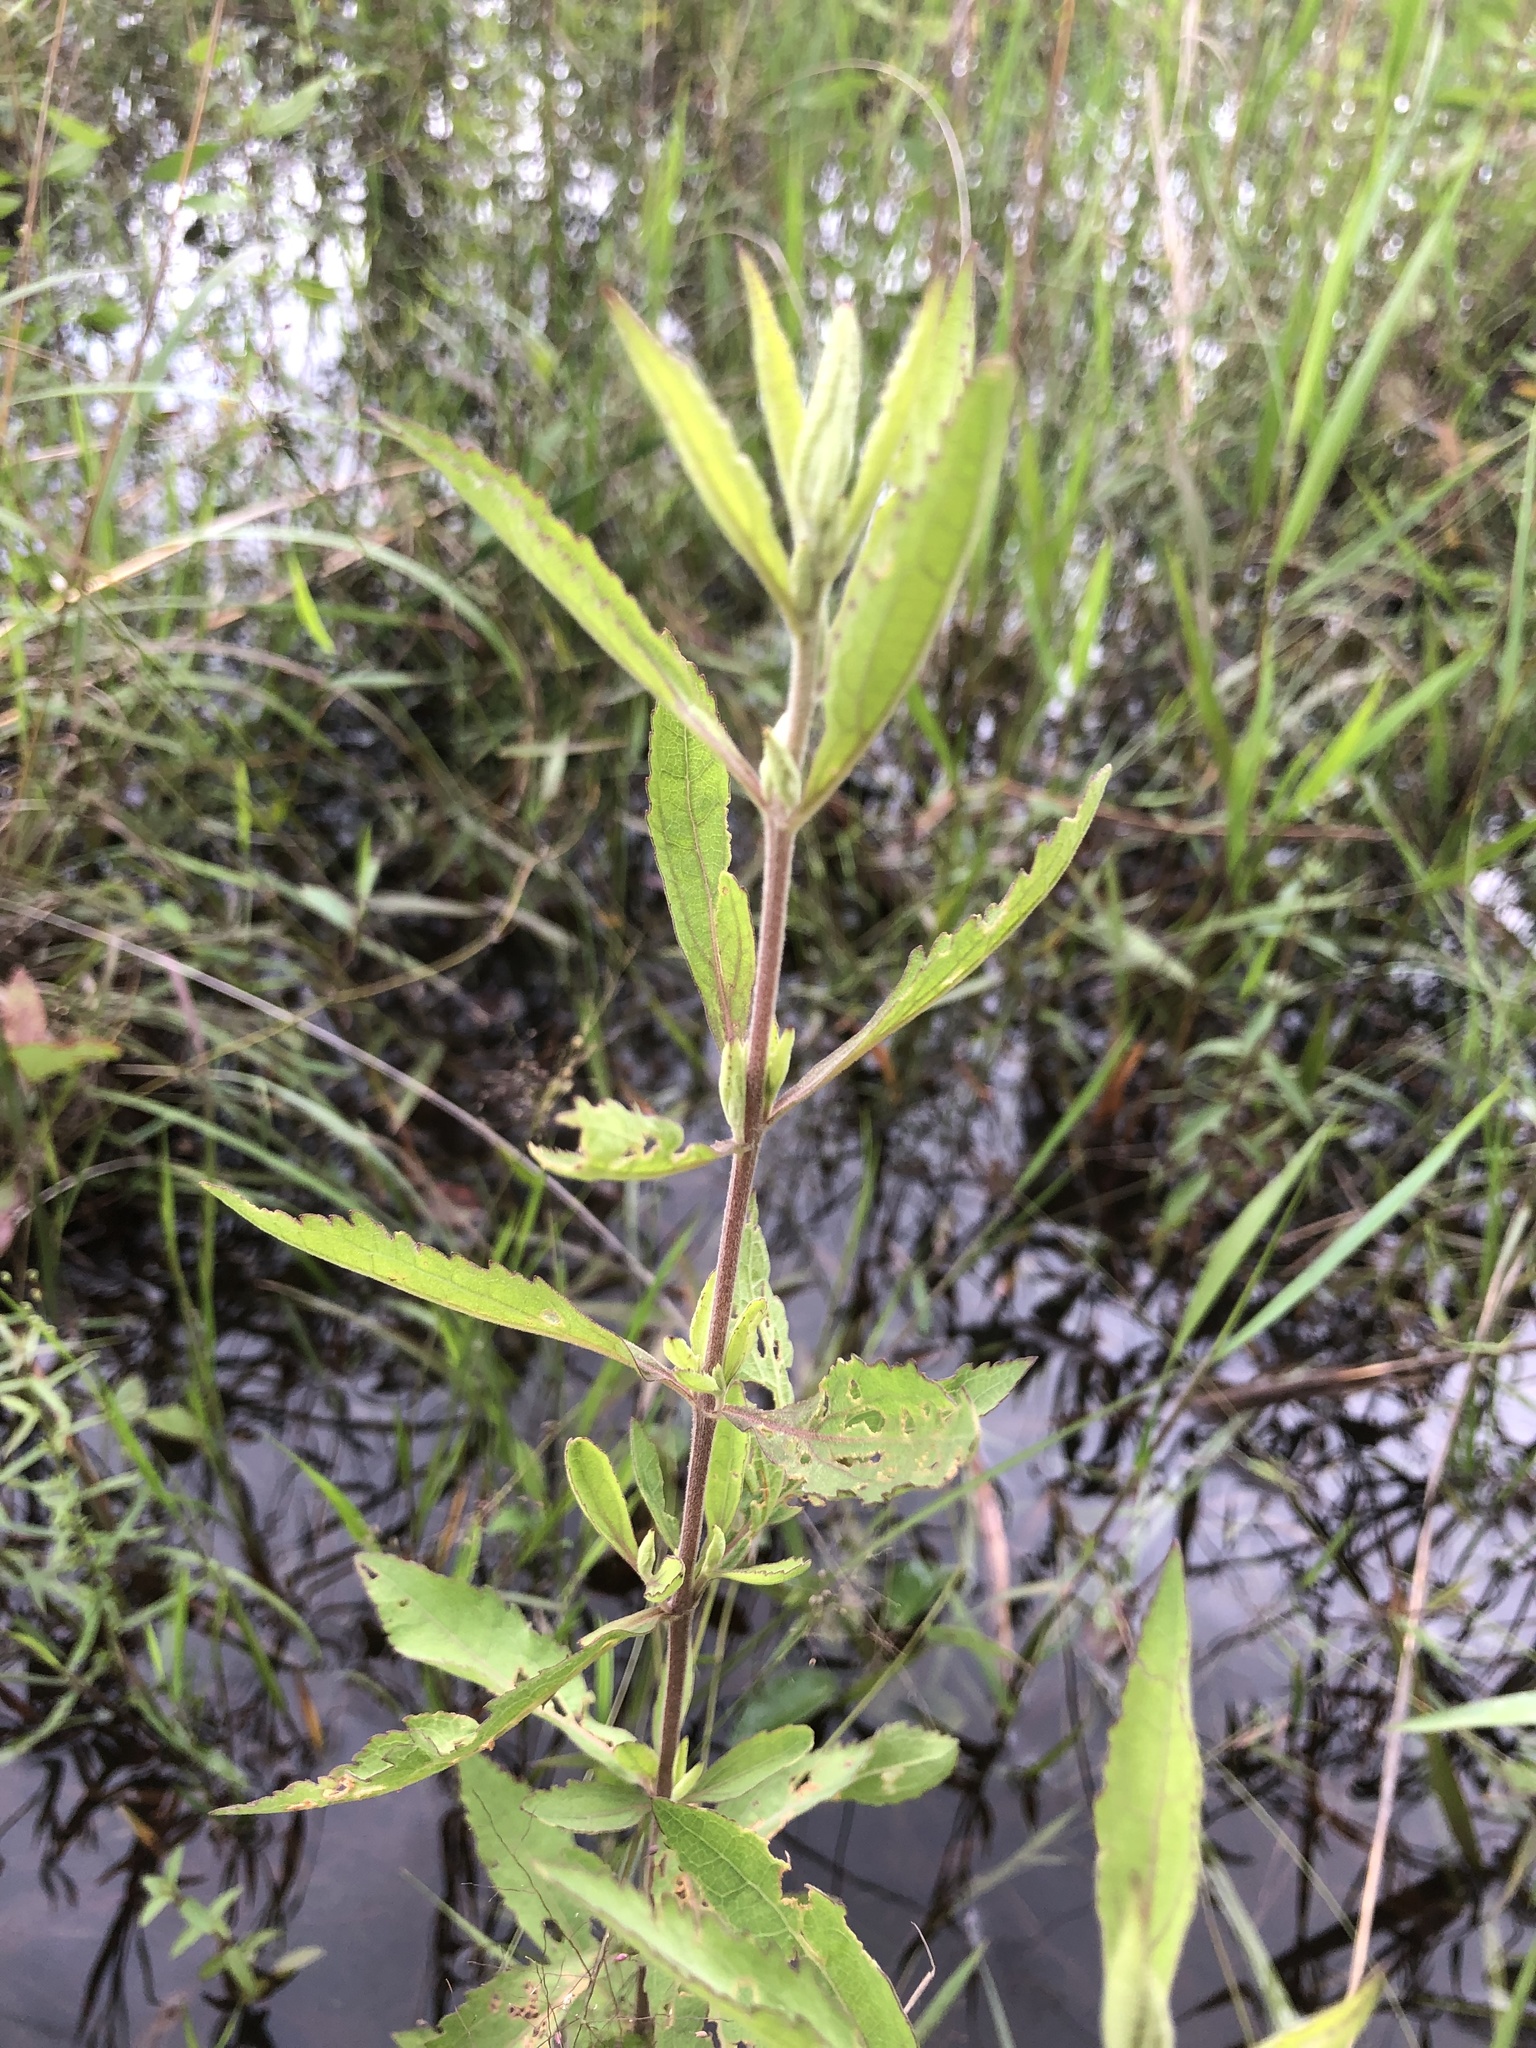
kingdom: Plantae
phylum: Tracheophyta
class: Magnoliopsida
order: Asterales
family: Asteraceae
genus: Eupatorium
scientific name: Eupatorium semiserratum
